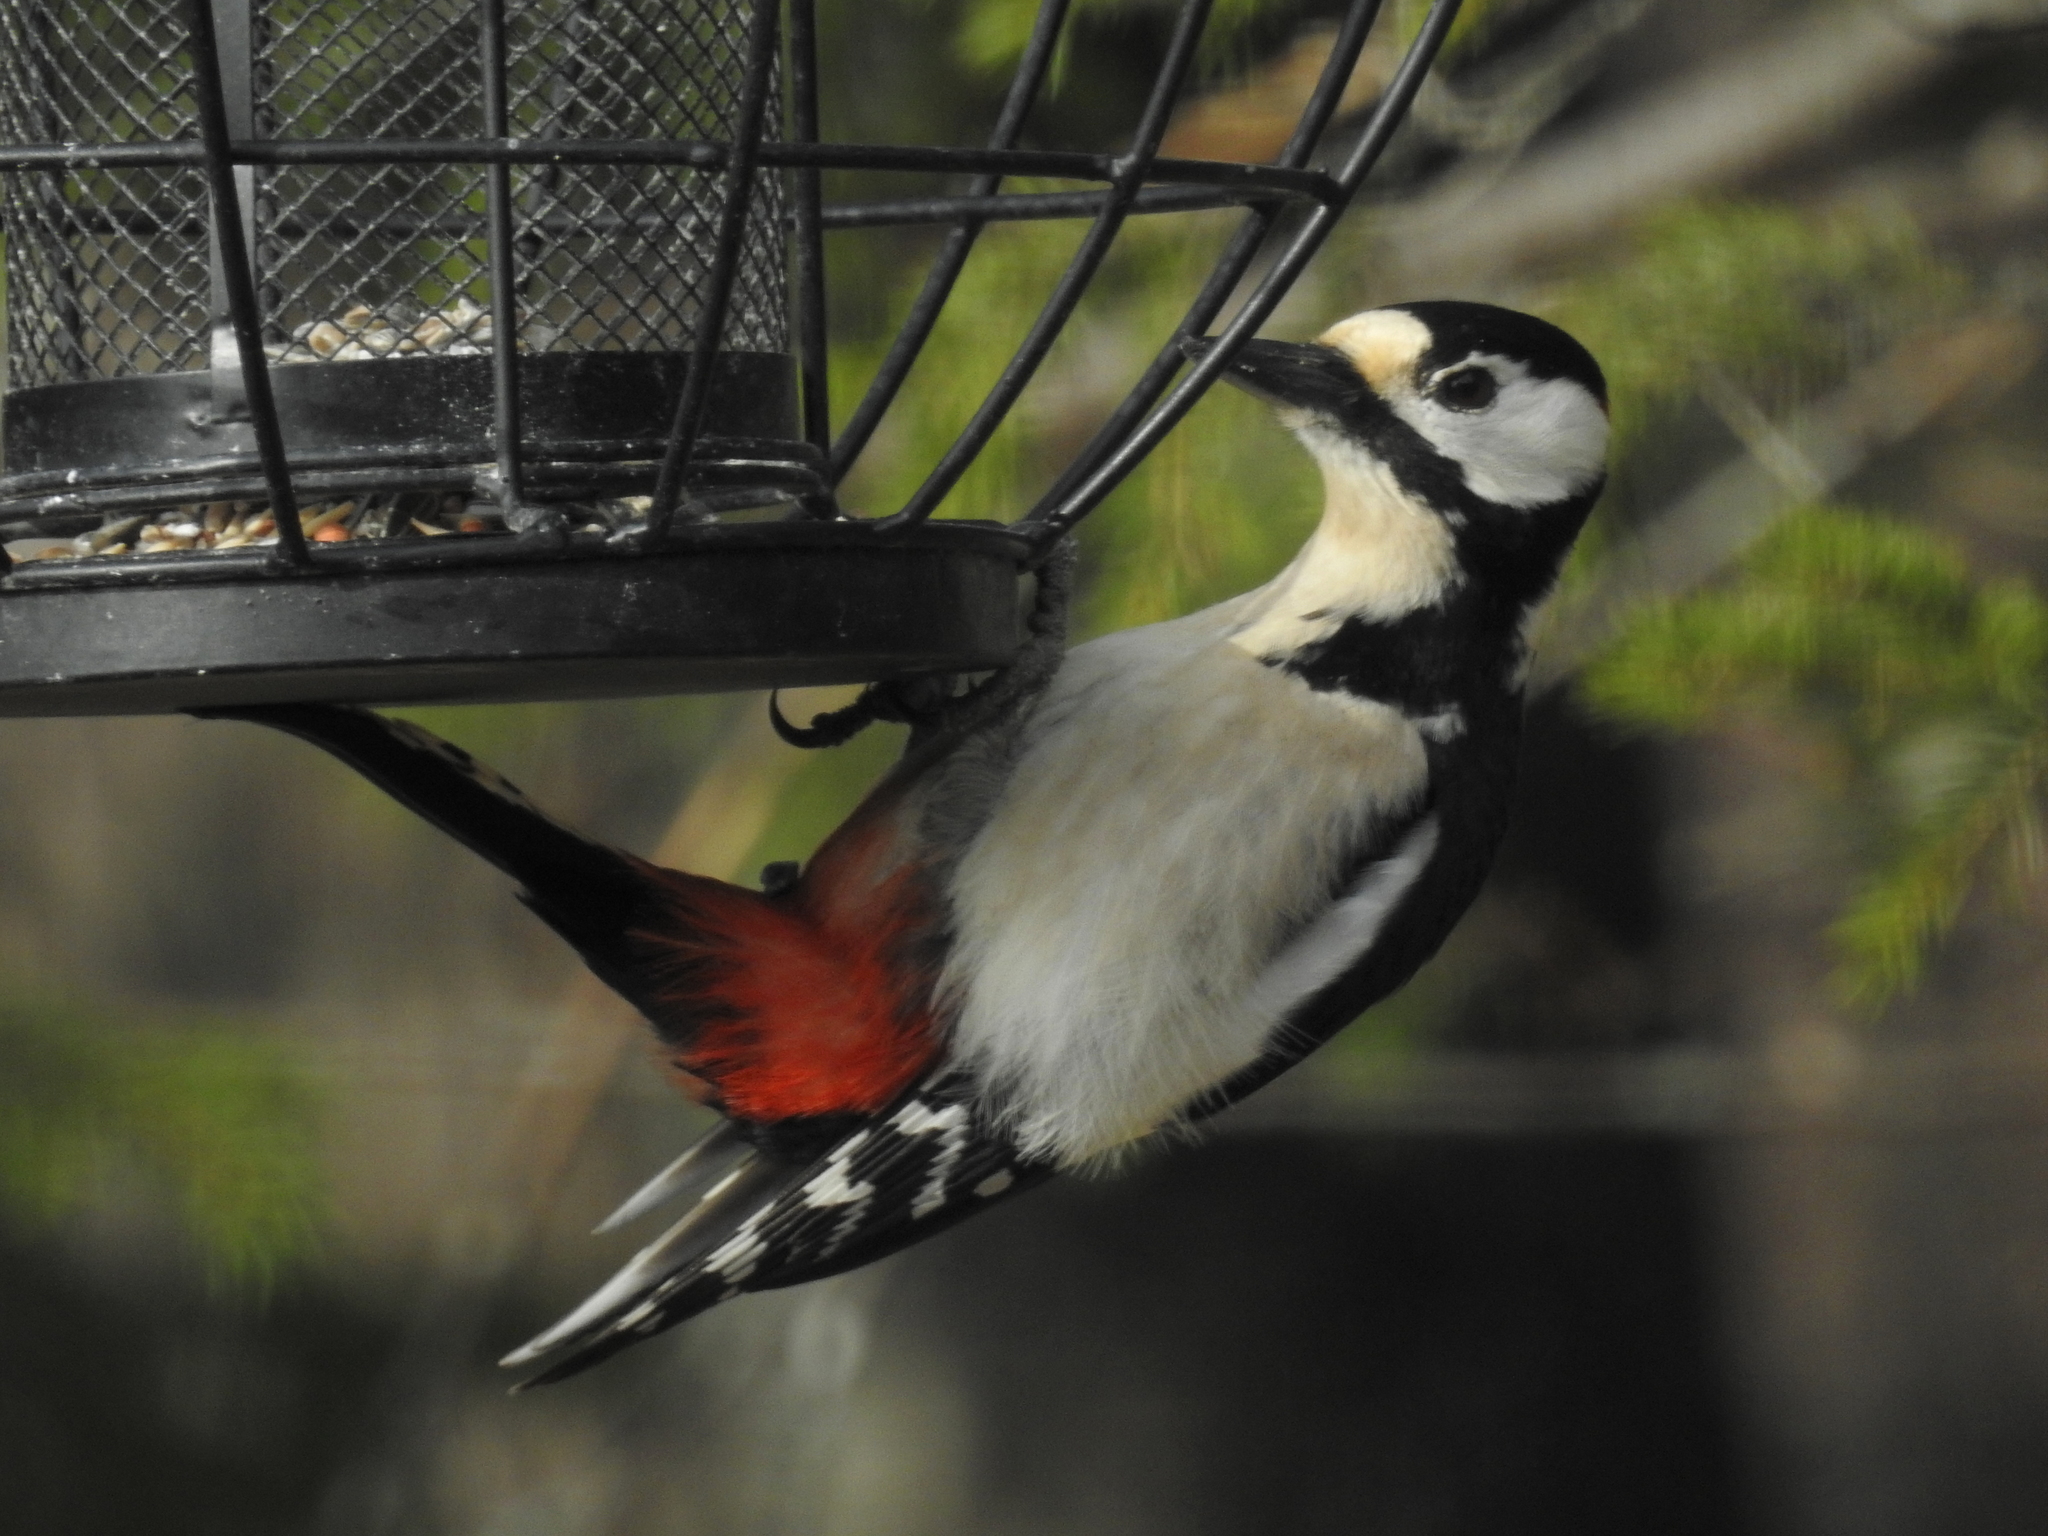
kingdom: Animalia
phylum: Chordata
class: Aves
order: Piciformes
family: Picidae
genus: Dendrocopos
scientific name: Dendrocopos major
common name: Great spotted woodpecker
